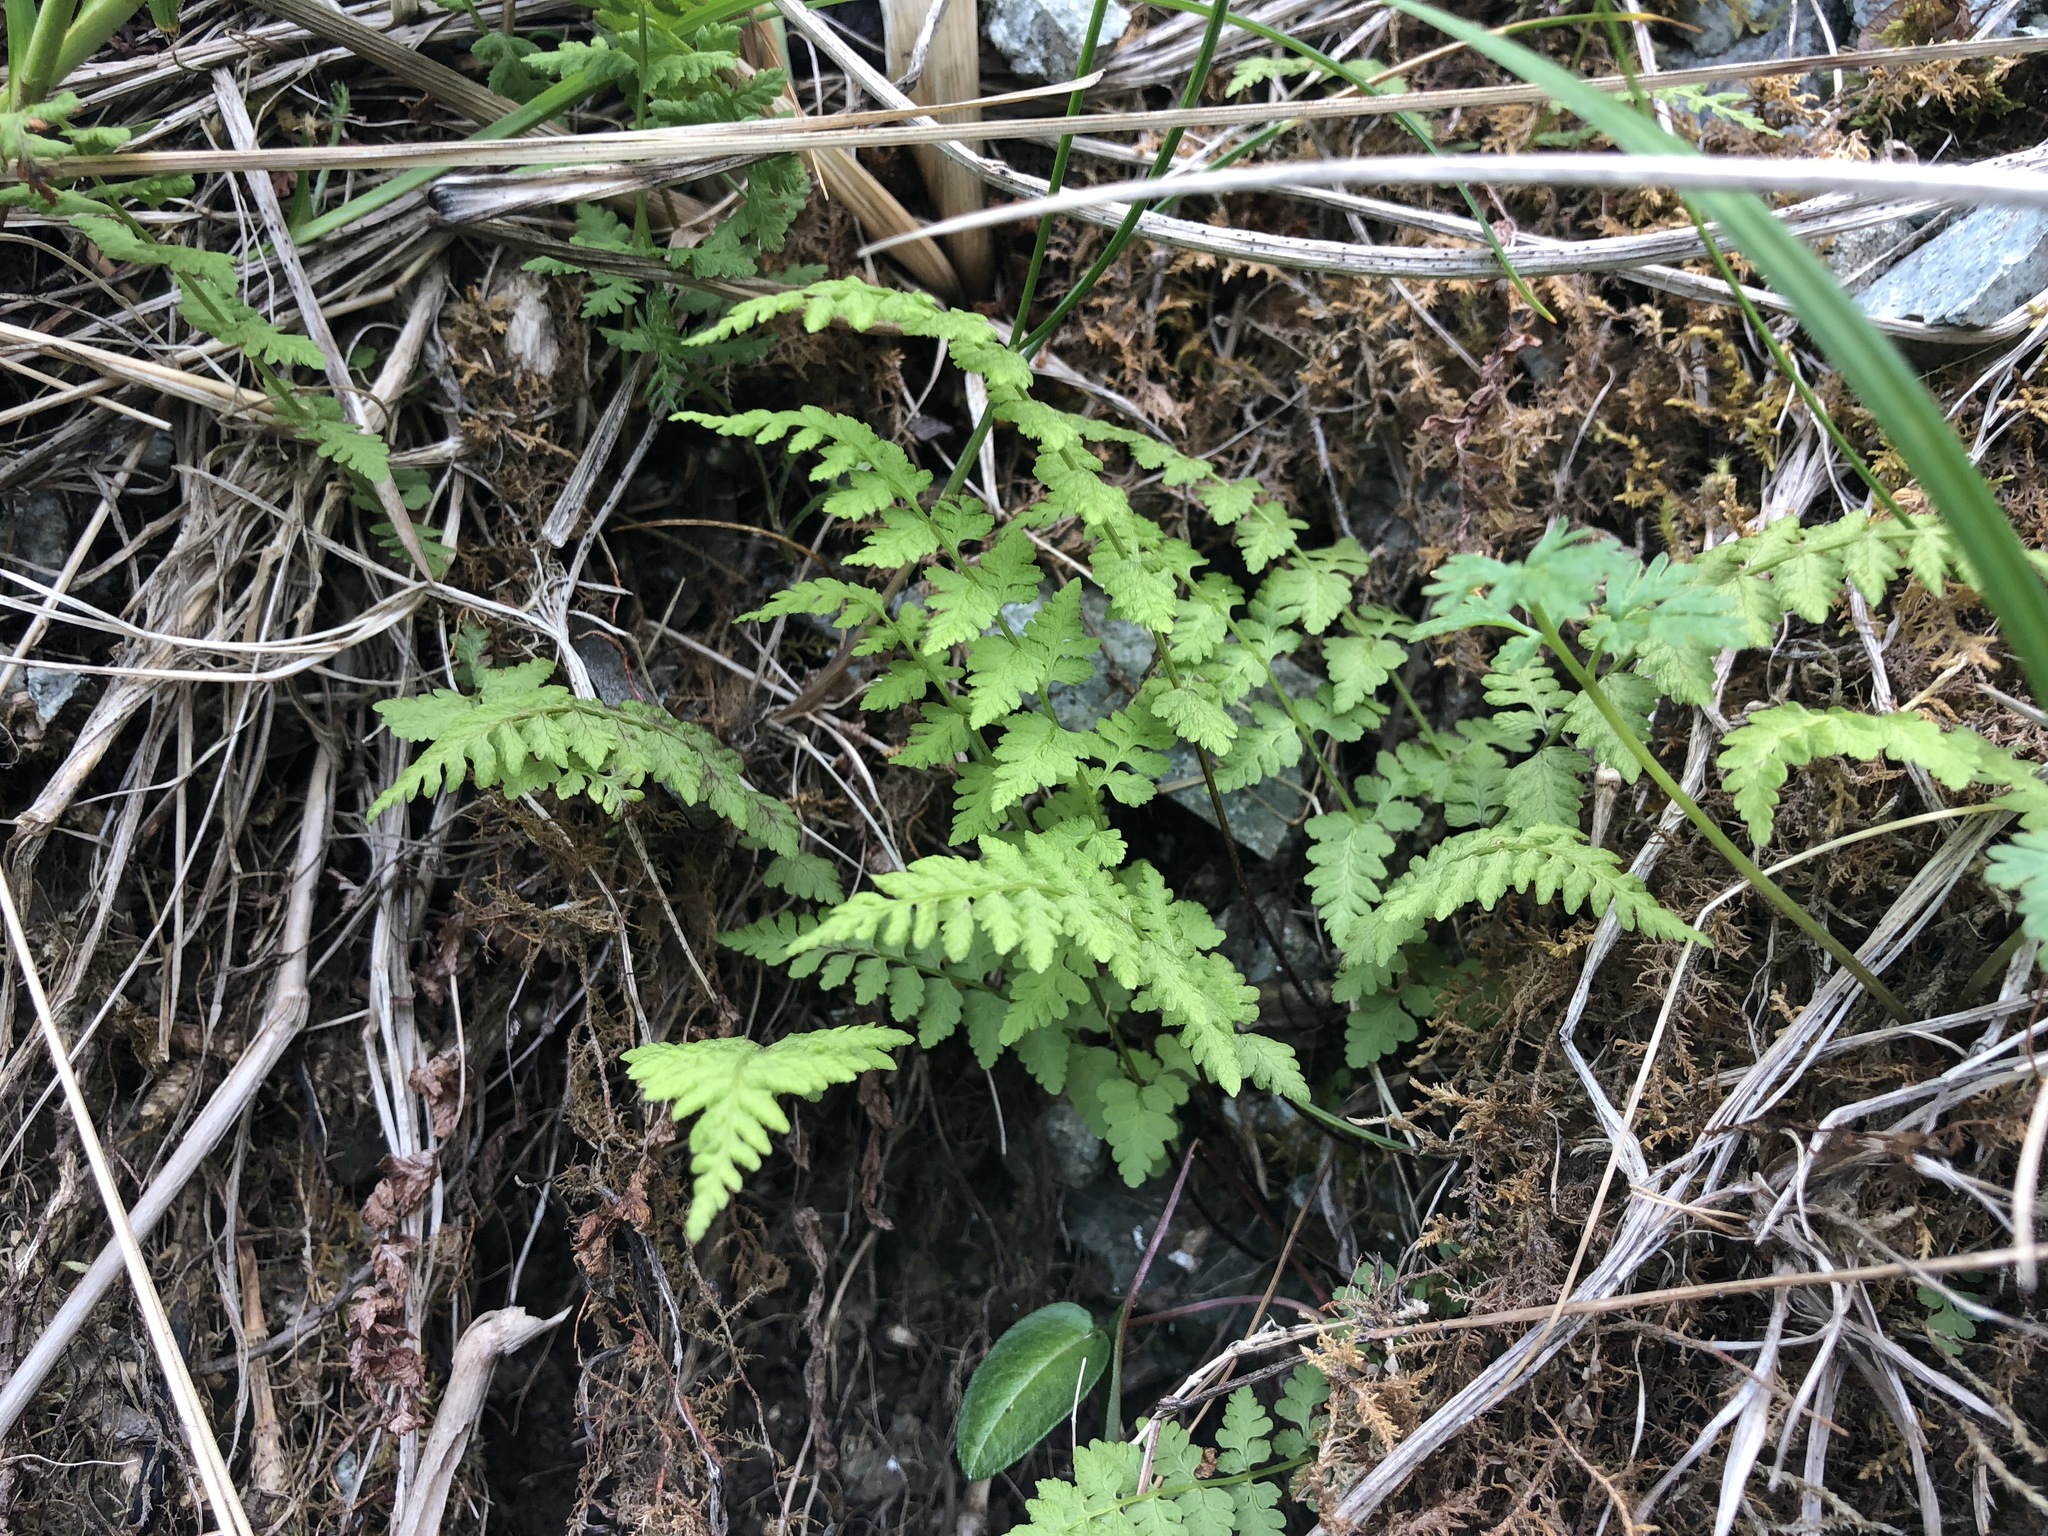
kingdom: Plantae
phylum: Tracheophyta
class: Polypodiopsida
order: Polypodiales
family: Cystopteridaceae
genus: Cystopteris
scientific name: Cystopteris fragilis
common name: Brittle bladder fern
